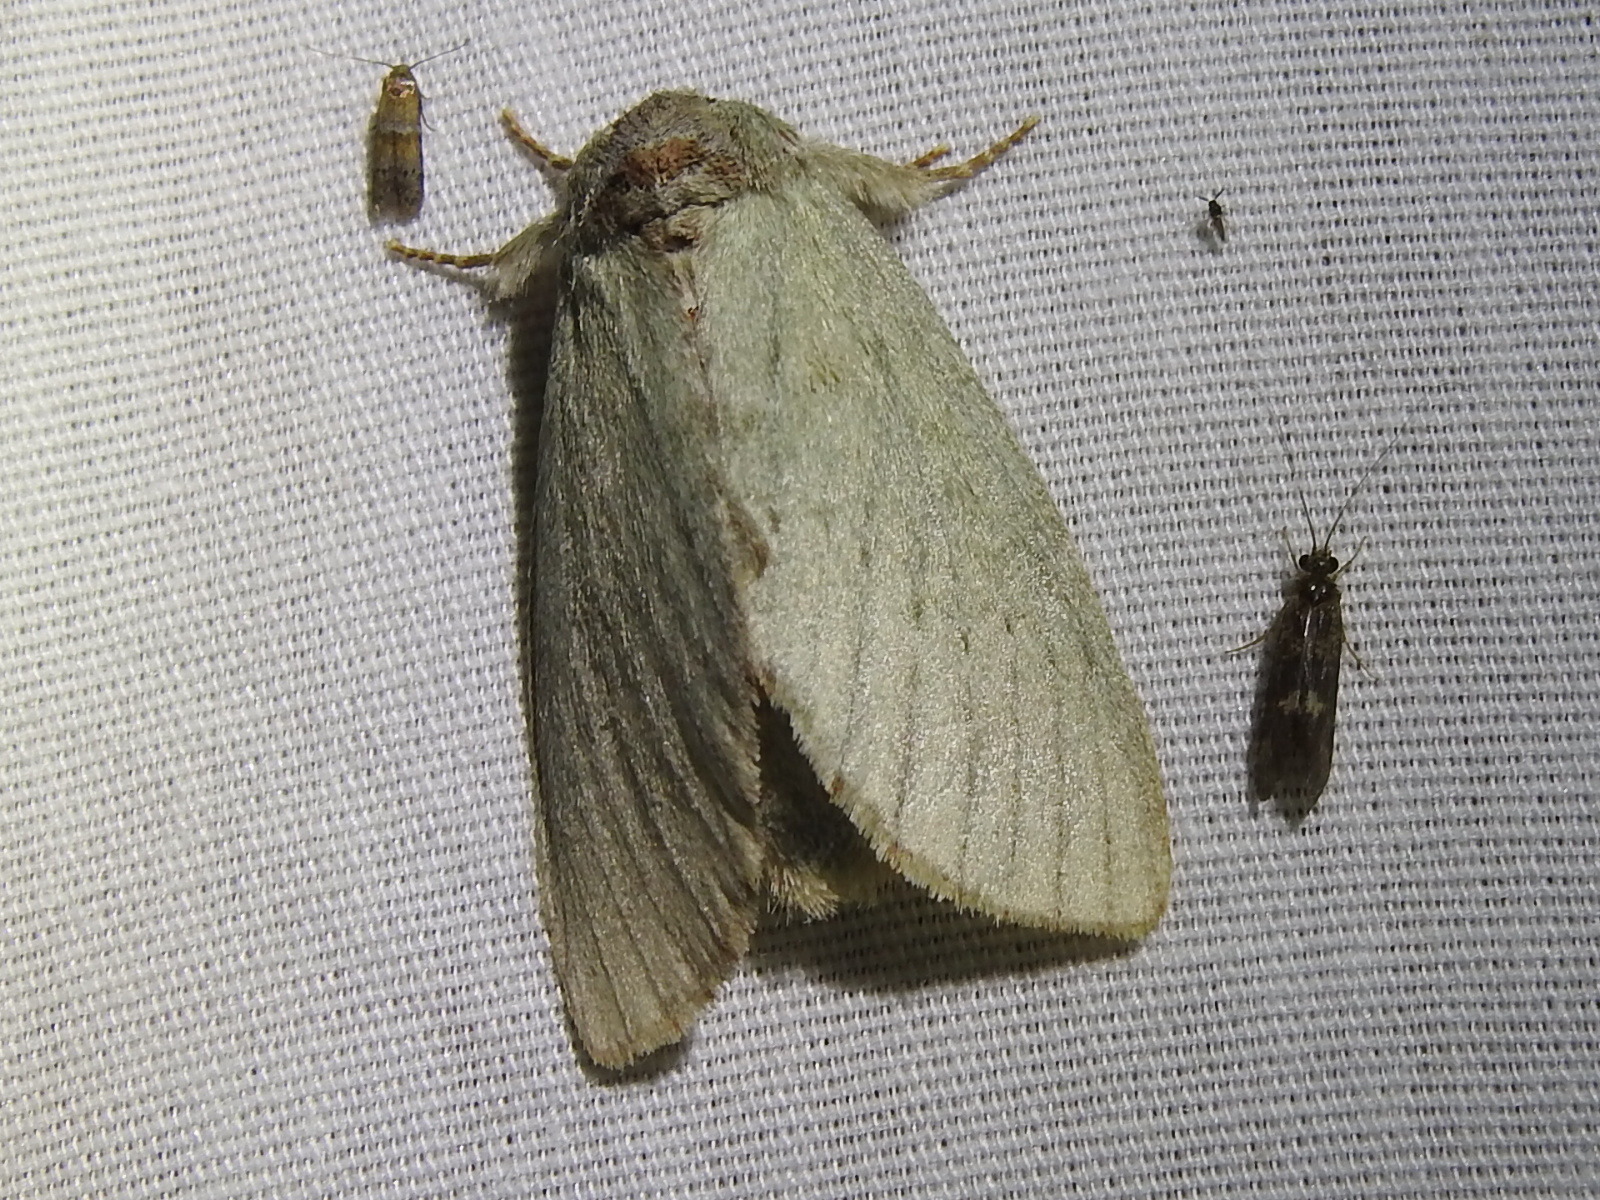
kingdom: Animalia
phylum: Arthropoda
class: Insecta
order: Lepidoptera
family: Notodontidae
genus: Misogada
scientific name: Misogada unicolor
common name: Drab prominent
